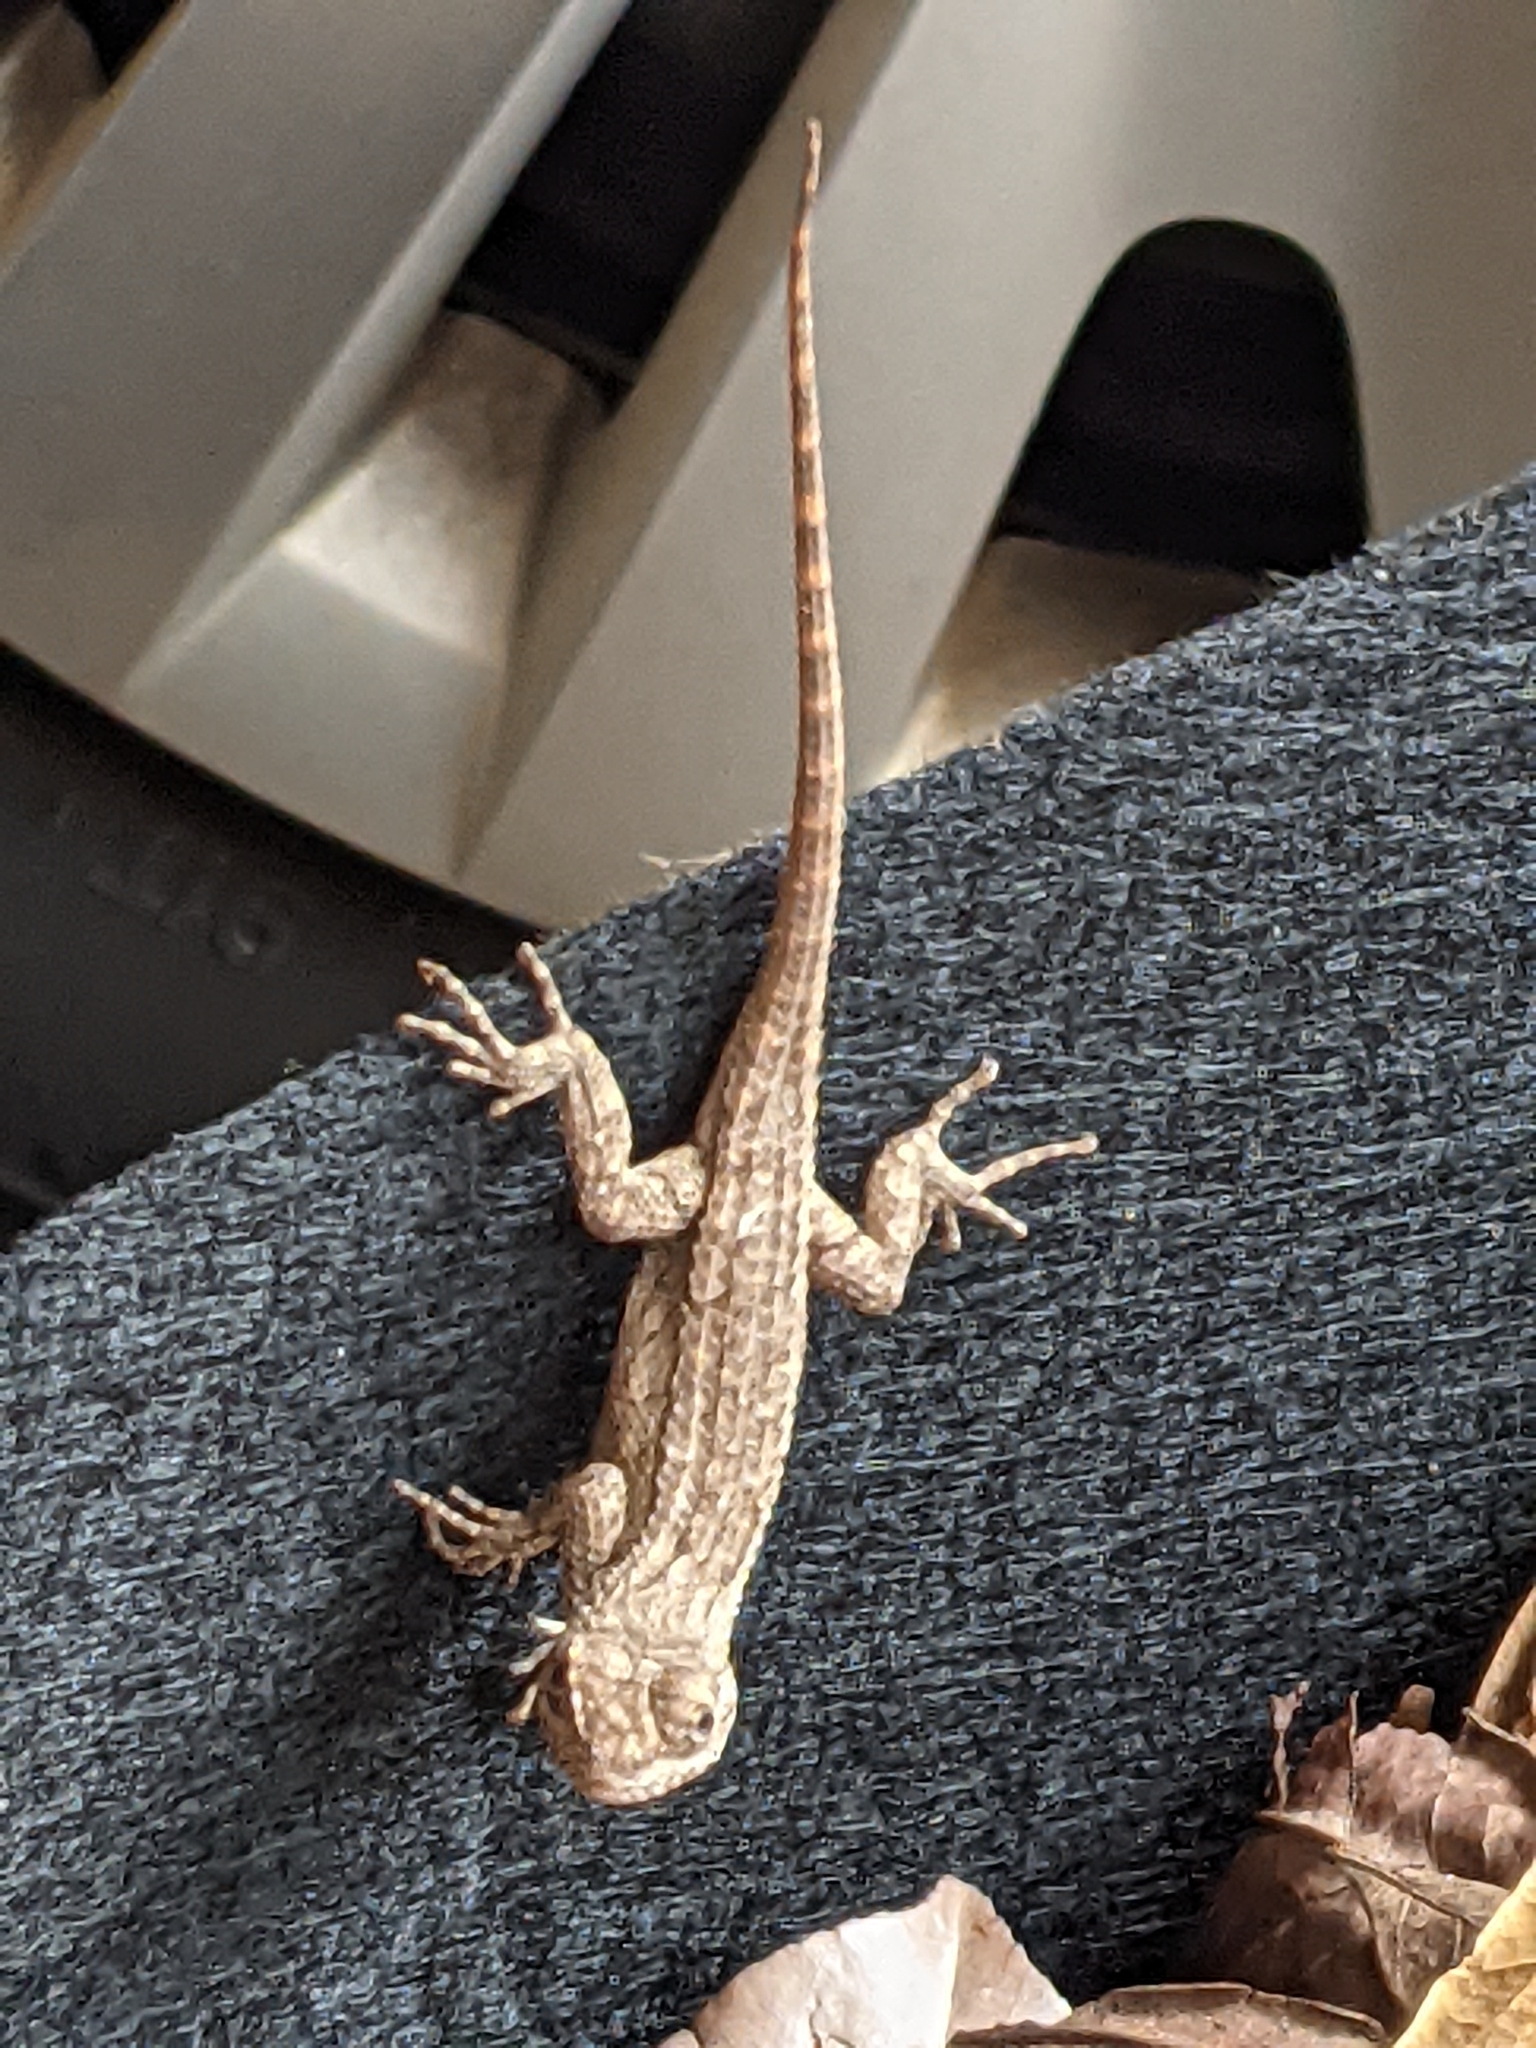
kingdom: Animalia
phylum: Chordata
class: Squamata
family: Phrynosomatidae
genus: Sceloporus
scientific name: Sceloporus olivaceus
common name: Texas spiny lizard
